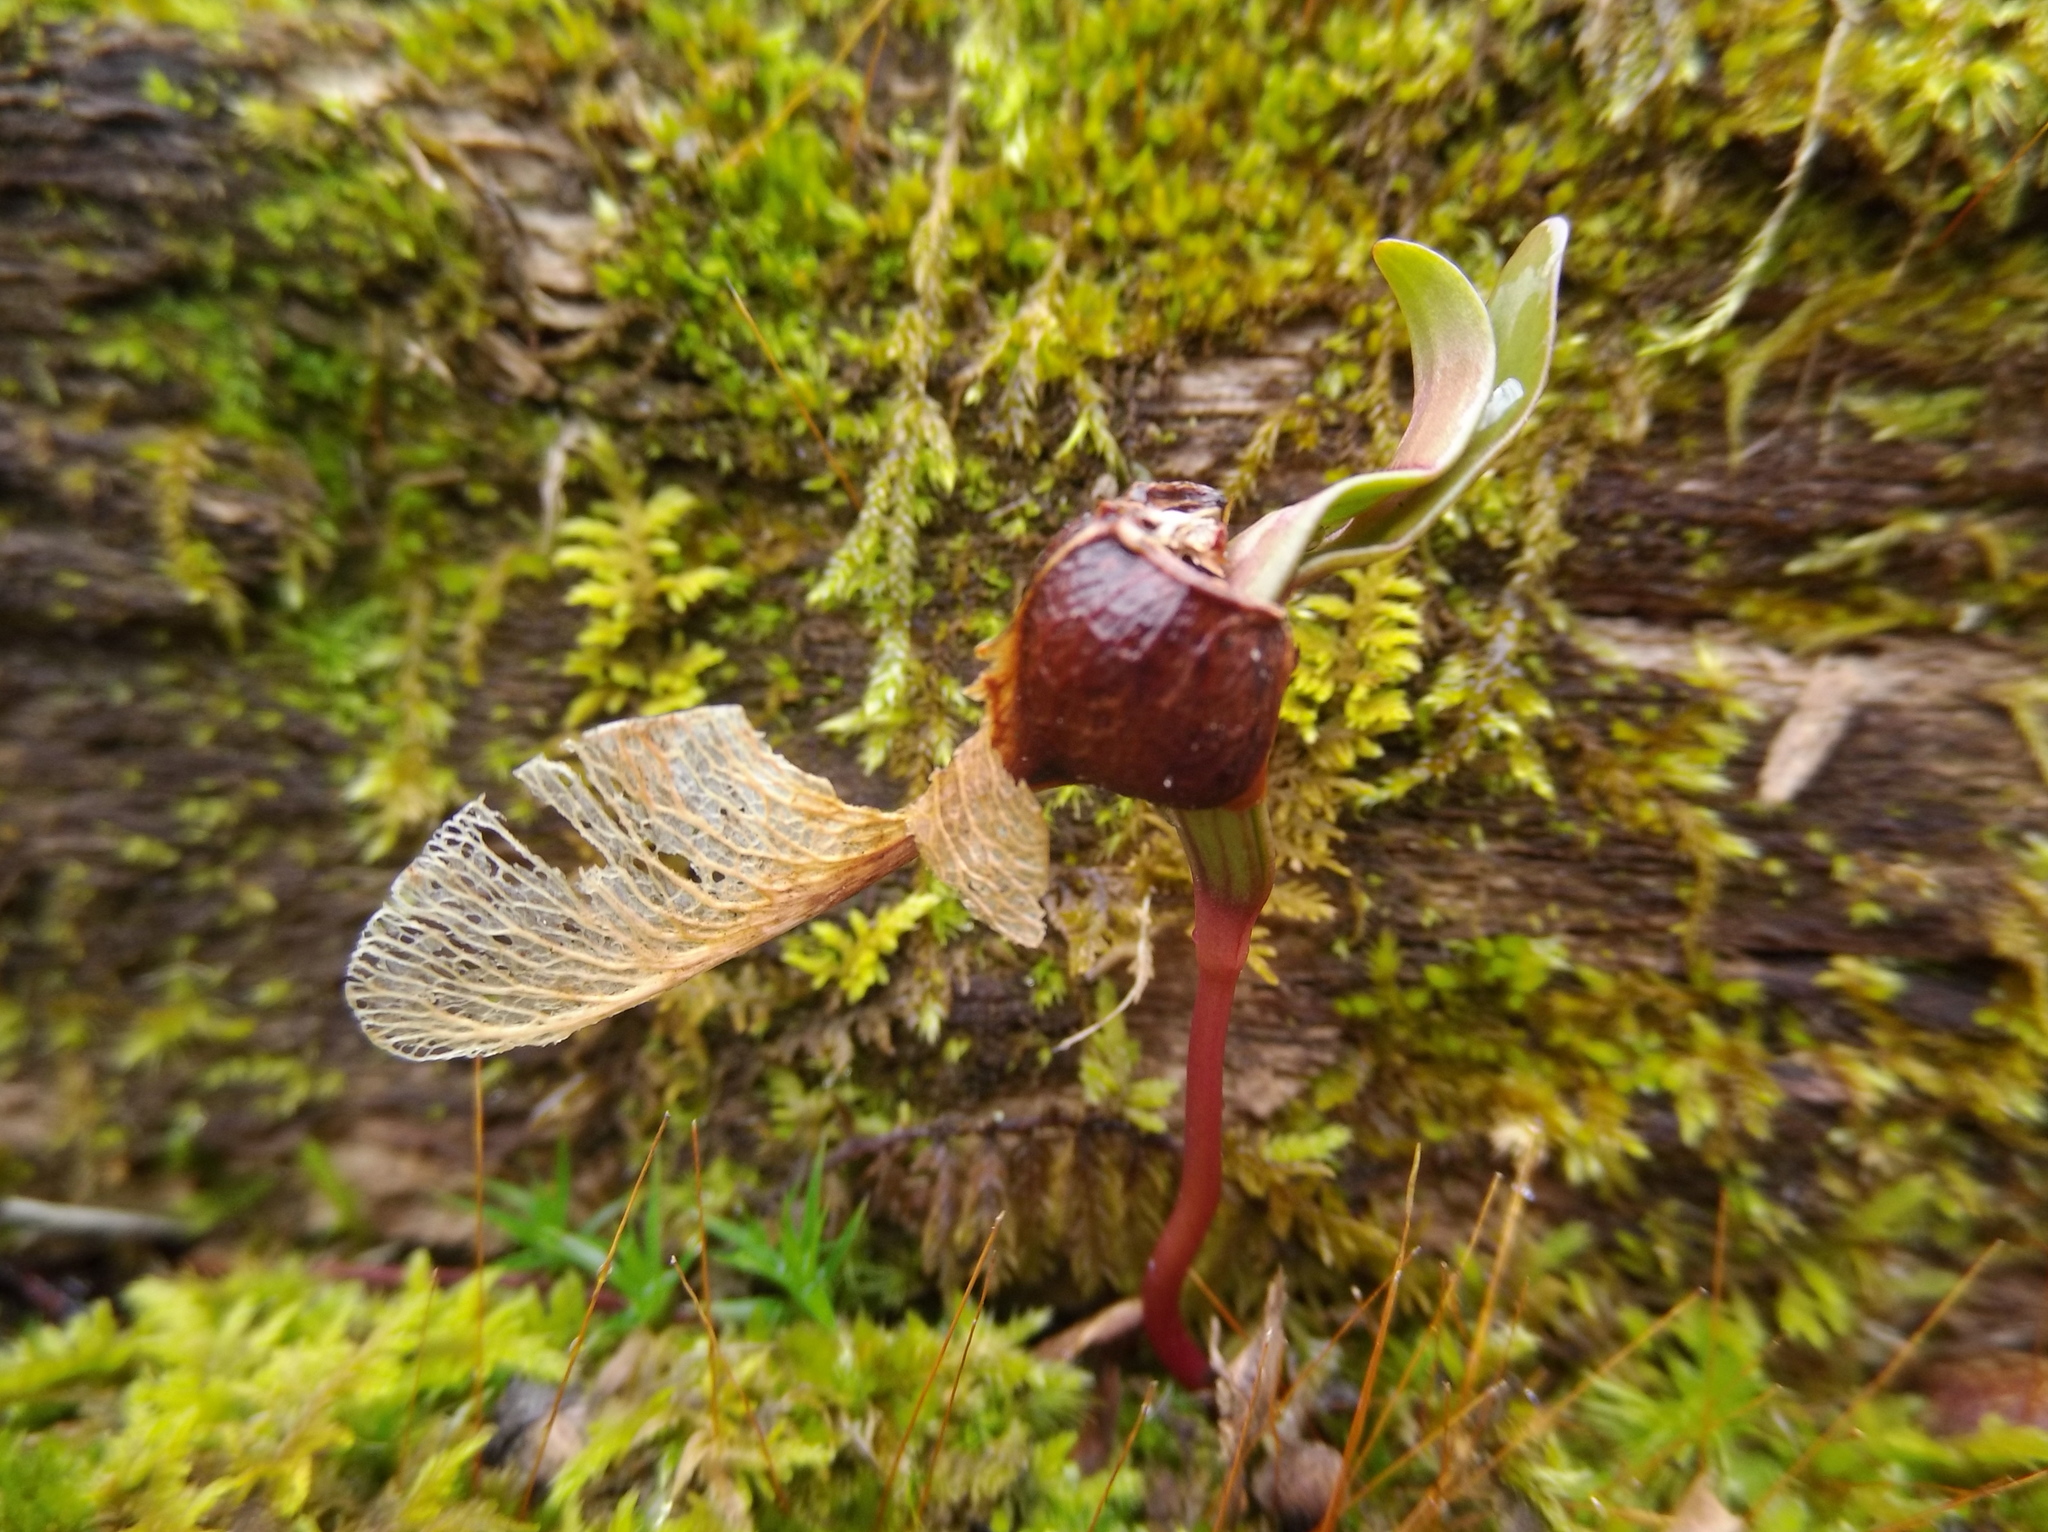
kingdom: Plantae
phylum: Tracheophyta
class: Magnoliopsida
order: Sapindales
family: Sapindaceae
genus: Acer
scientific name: Acer saccharum
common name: Sugar maple
